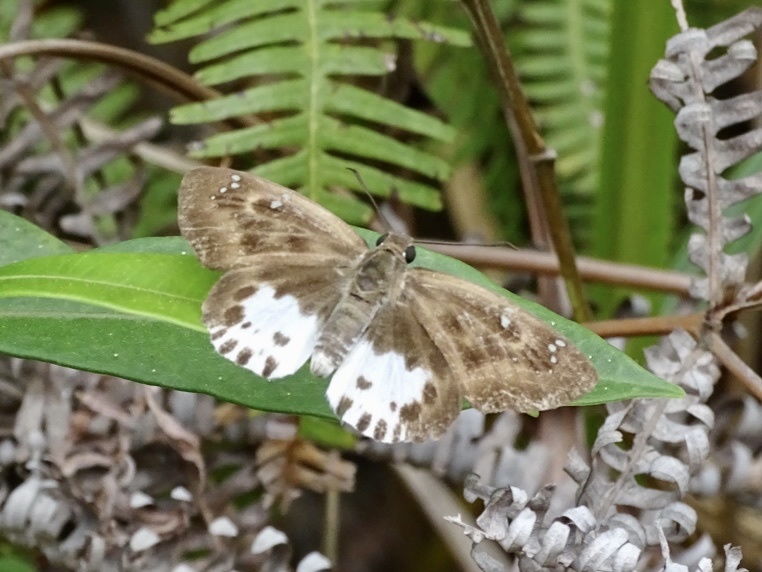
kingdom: Animalia
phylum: Arthropoda
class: Insecta
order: Lepidoptera
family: Hesperiidae
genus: Tagiades
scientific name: Tagiades menaka
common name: Dark-edged snow flat
